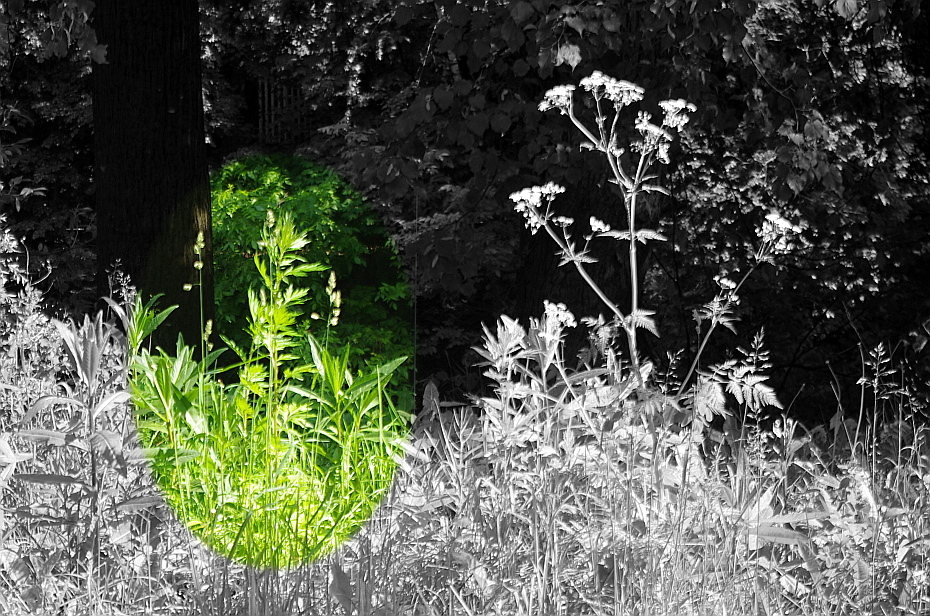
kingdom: Plantae
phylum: Tracheophyta
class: Magnoliopsida
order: Asterales
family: Asteraceae
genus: Artemisia
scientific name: Artemisia vulgaris
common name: Mugwort
